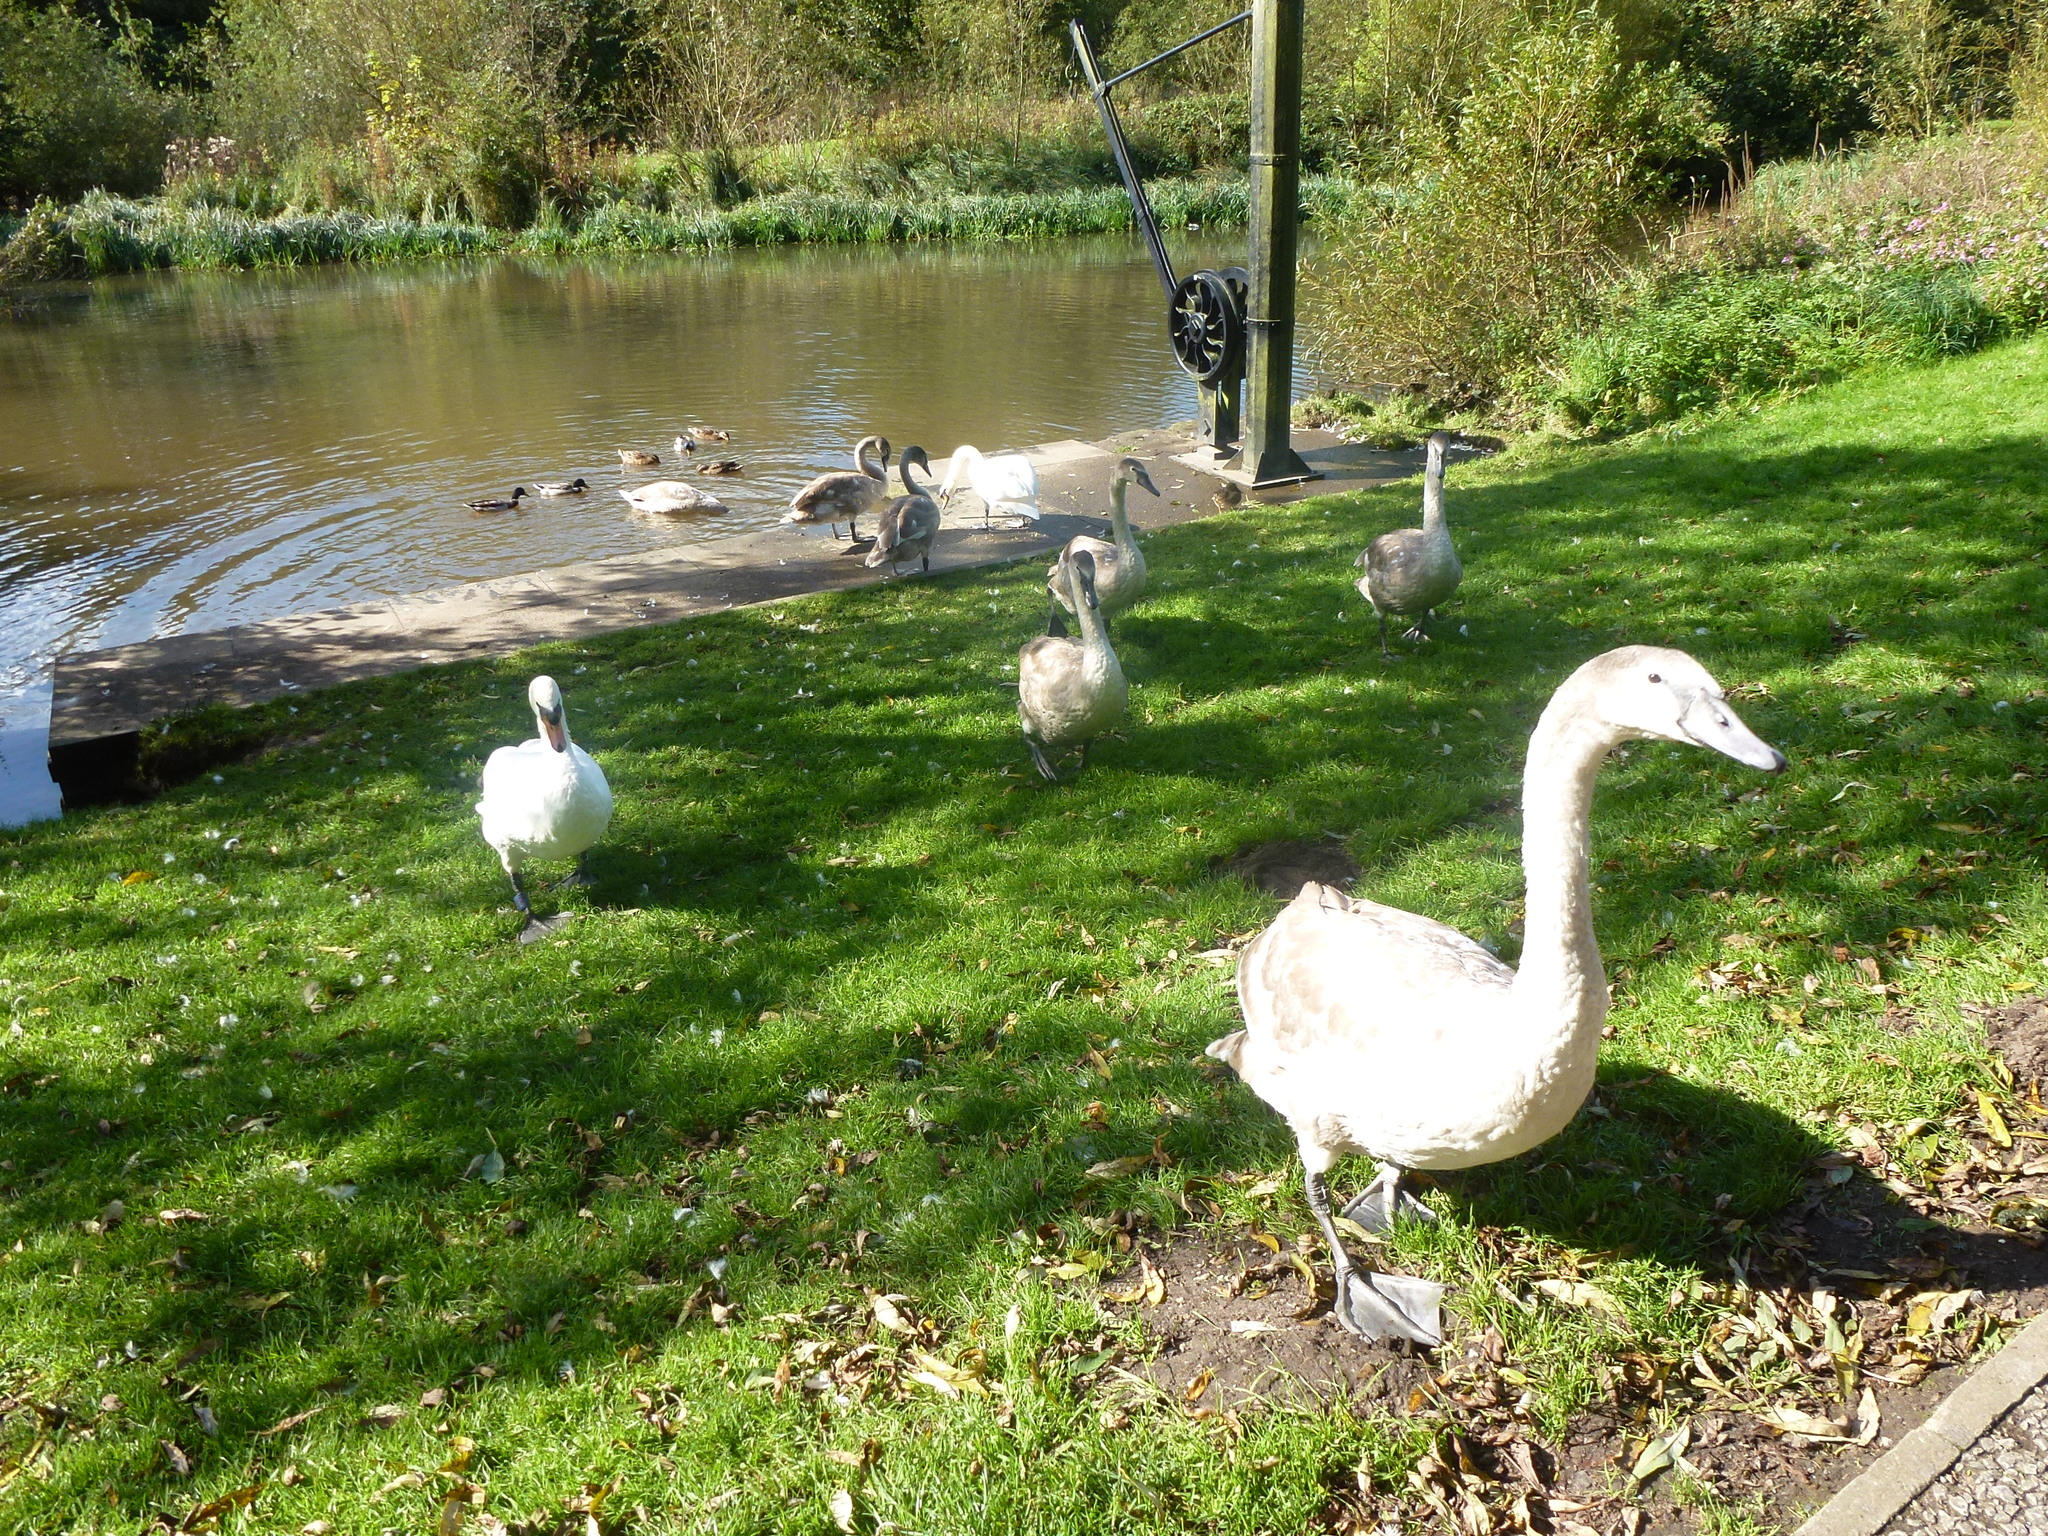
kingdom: Animalia
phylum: Chordata
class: Aves
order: Anseriformes
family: Anatidae
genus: Cygnus
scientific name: Cygnus olor
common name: Mute swan
